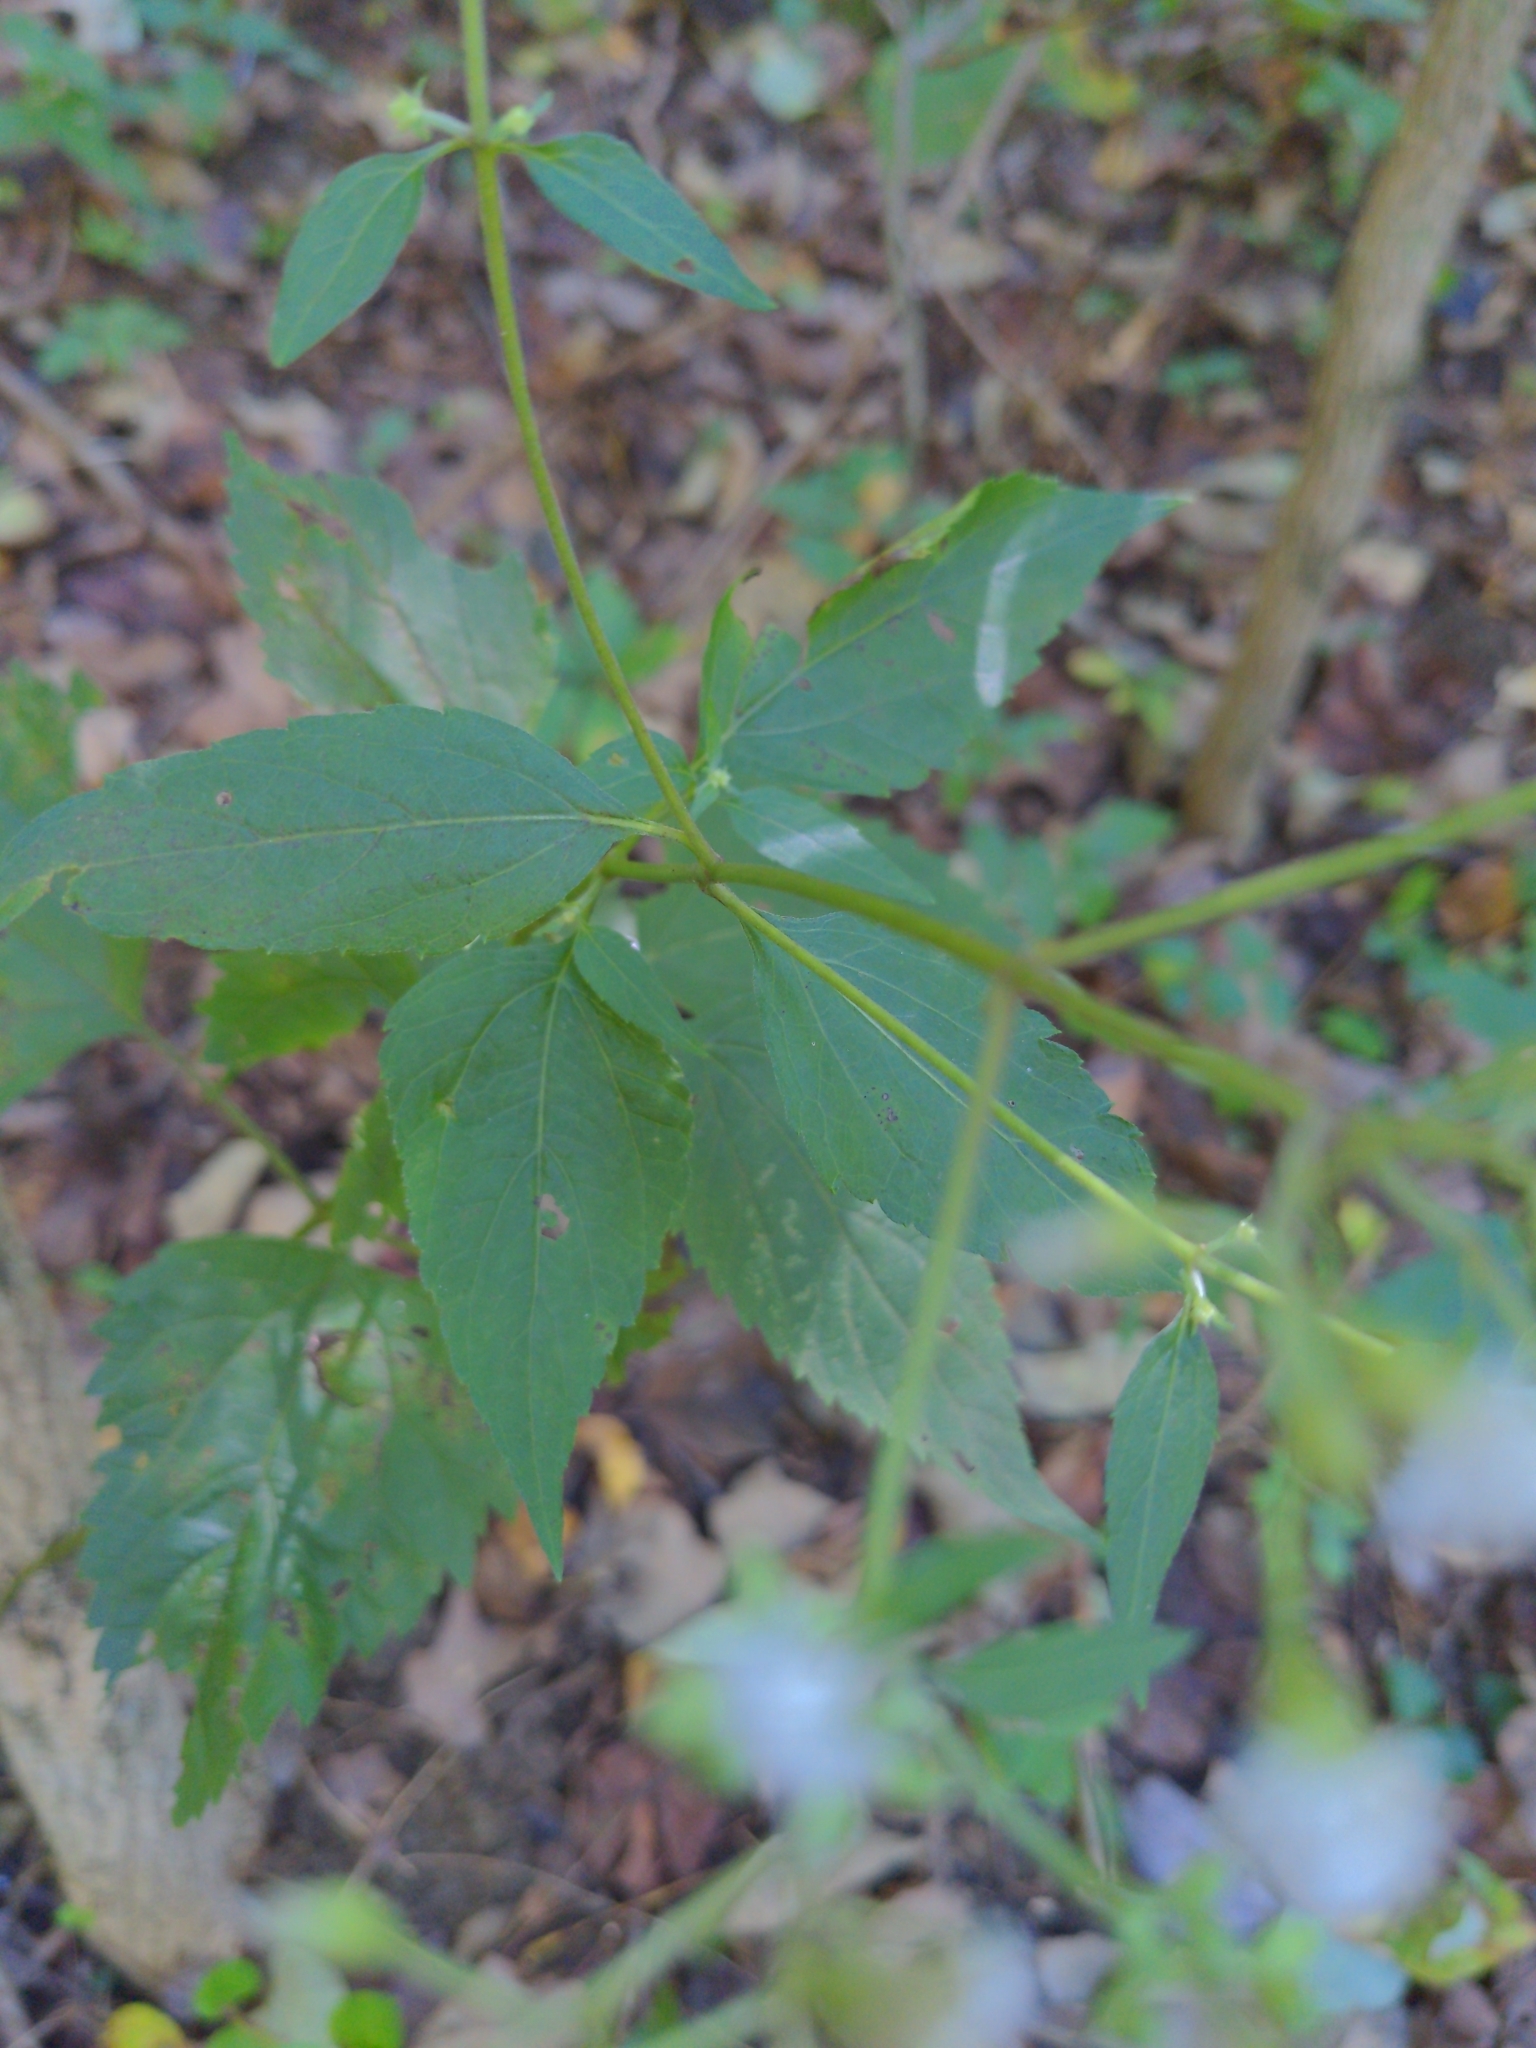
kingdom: Plantae
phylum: Tracheophyta
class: Magnoliopsida
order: Asterales
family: Asteraceae
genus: Ageratina
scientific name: Ageratina altissima
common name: White snakeroot
